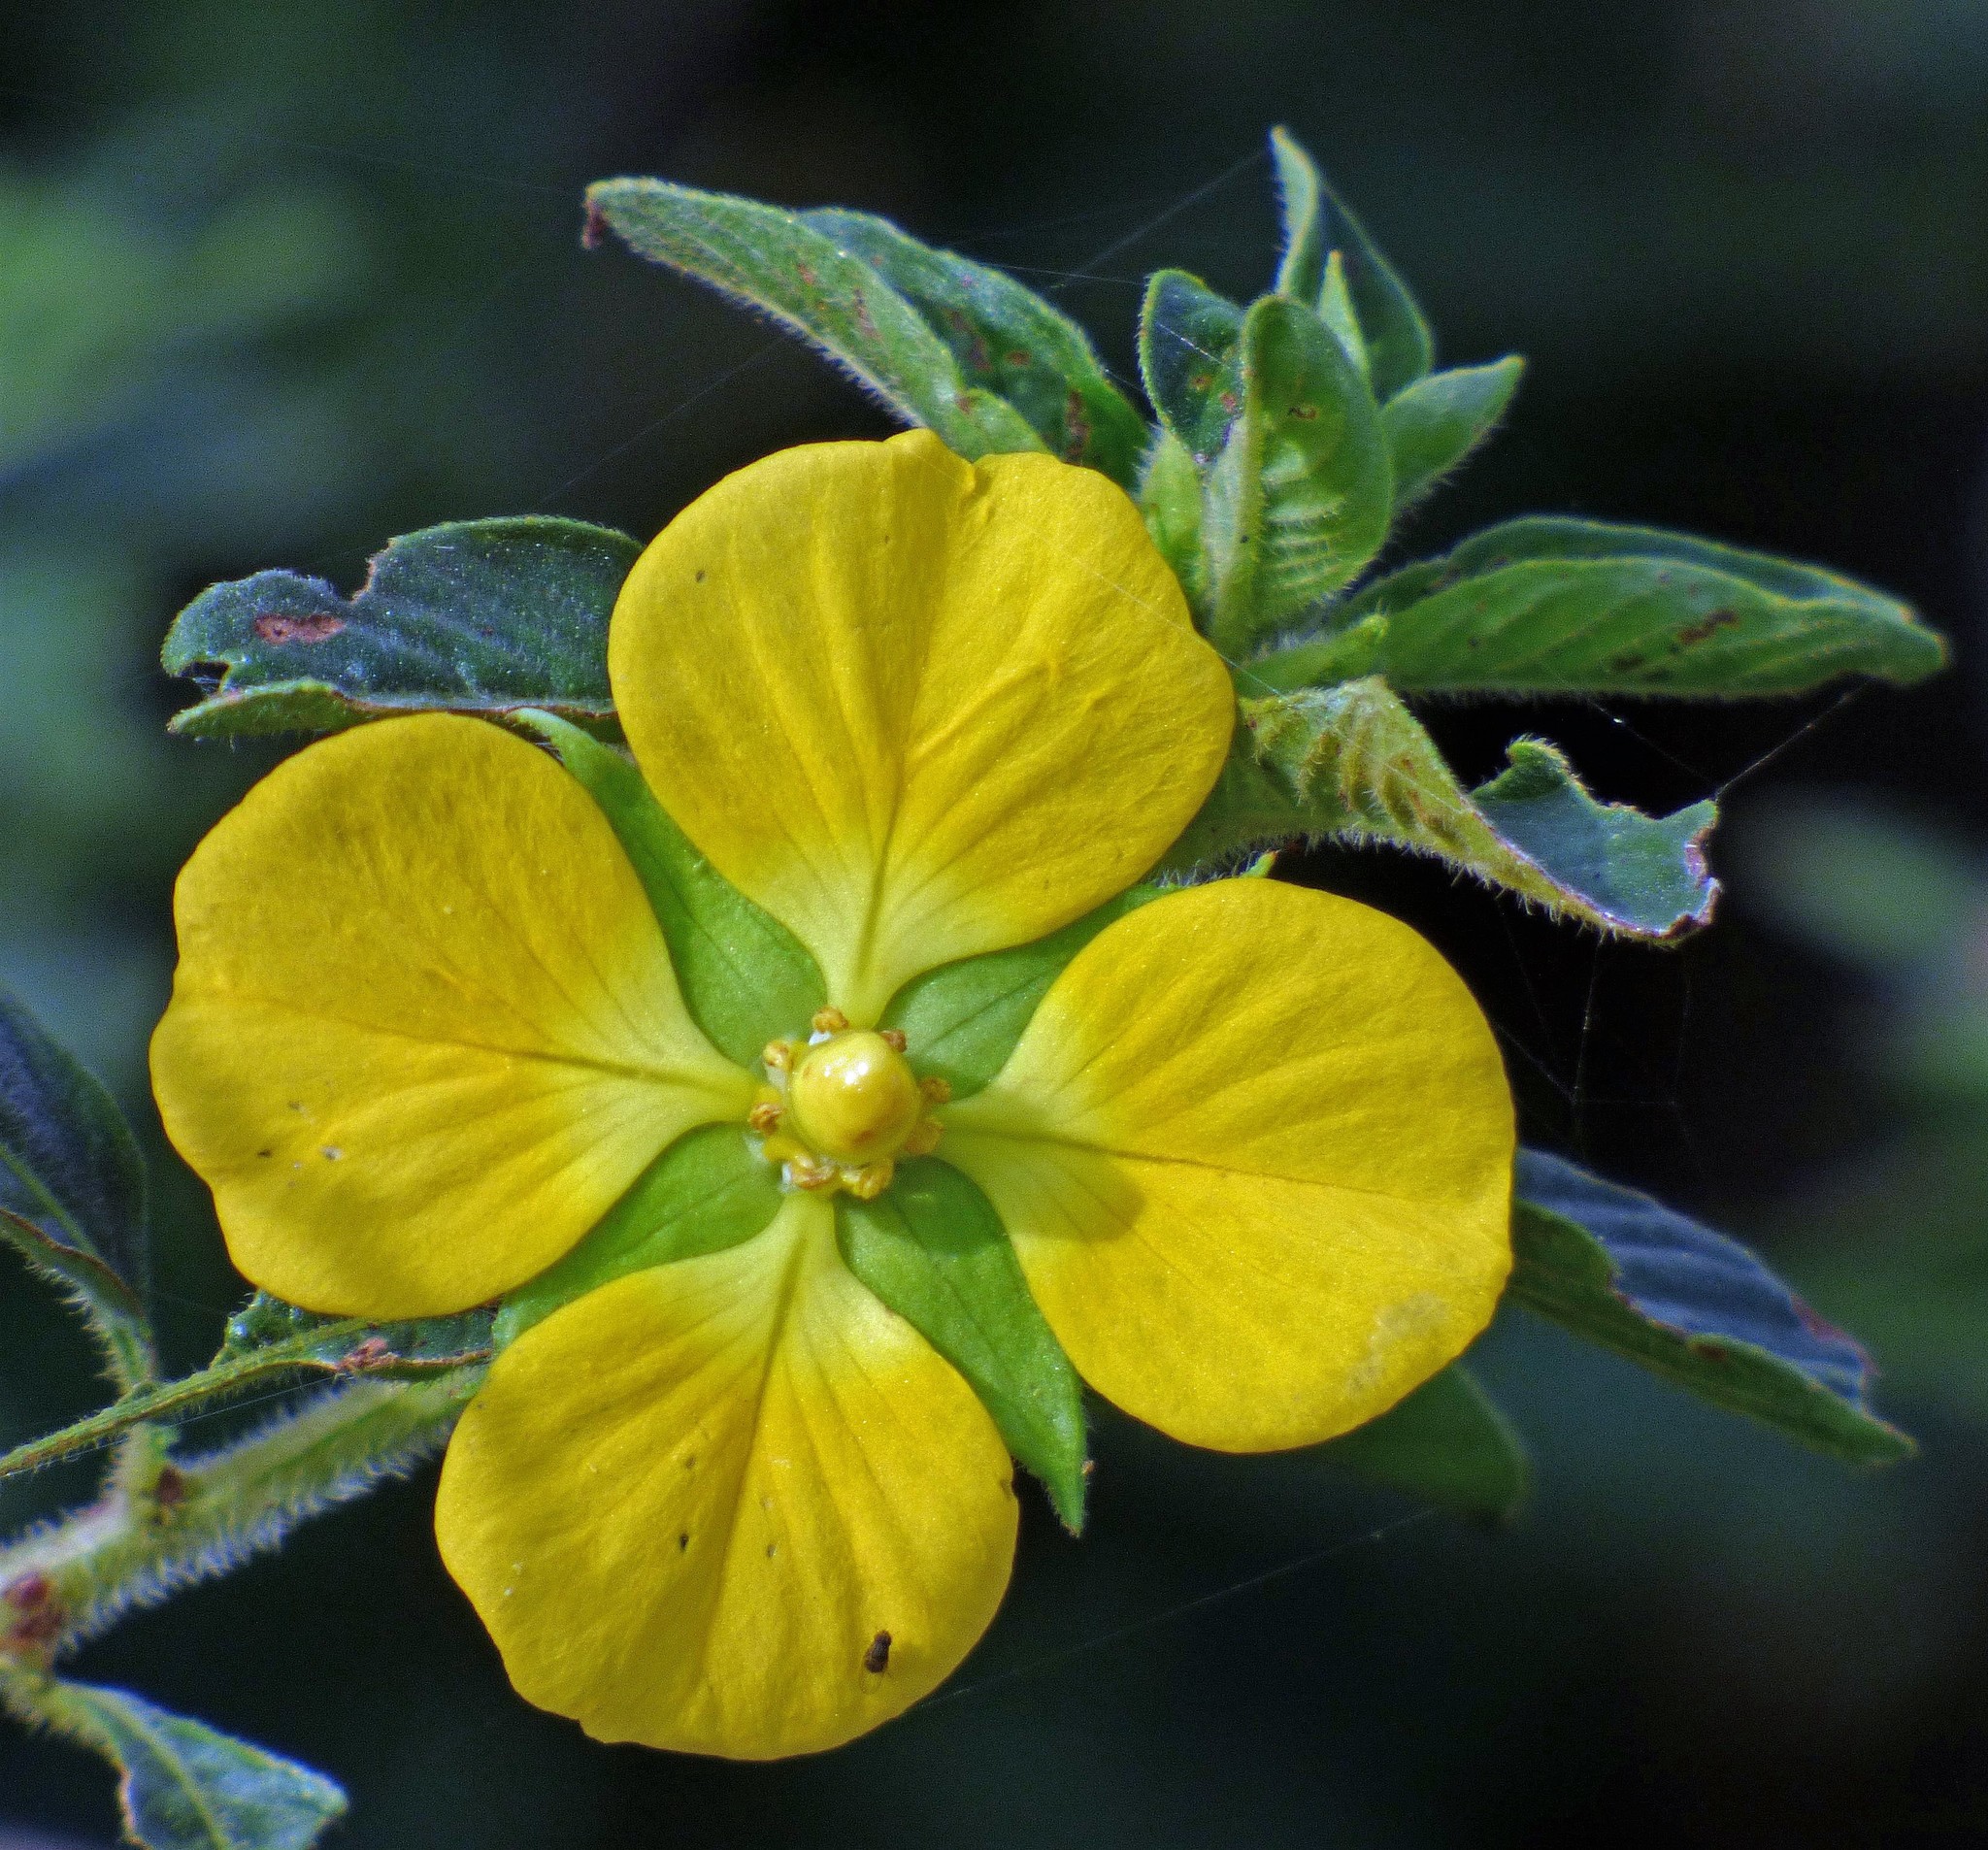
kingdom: Plantae
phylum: Tracheophyta
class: Magnoliopsida
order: Myrtales
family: Onagraceae
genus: Ludwigia
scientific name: Ludwigia peruviana
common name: Peruvian primrose-willow
